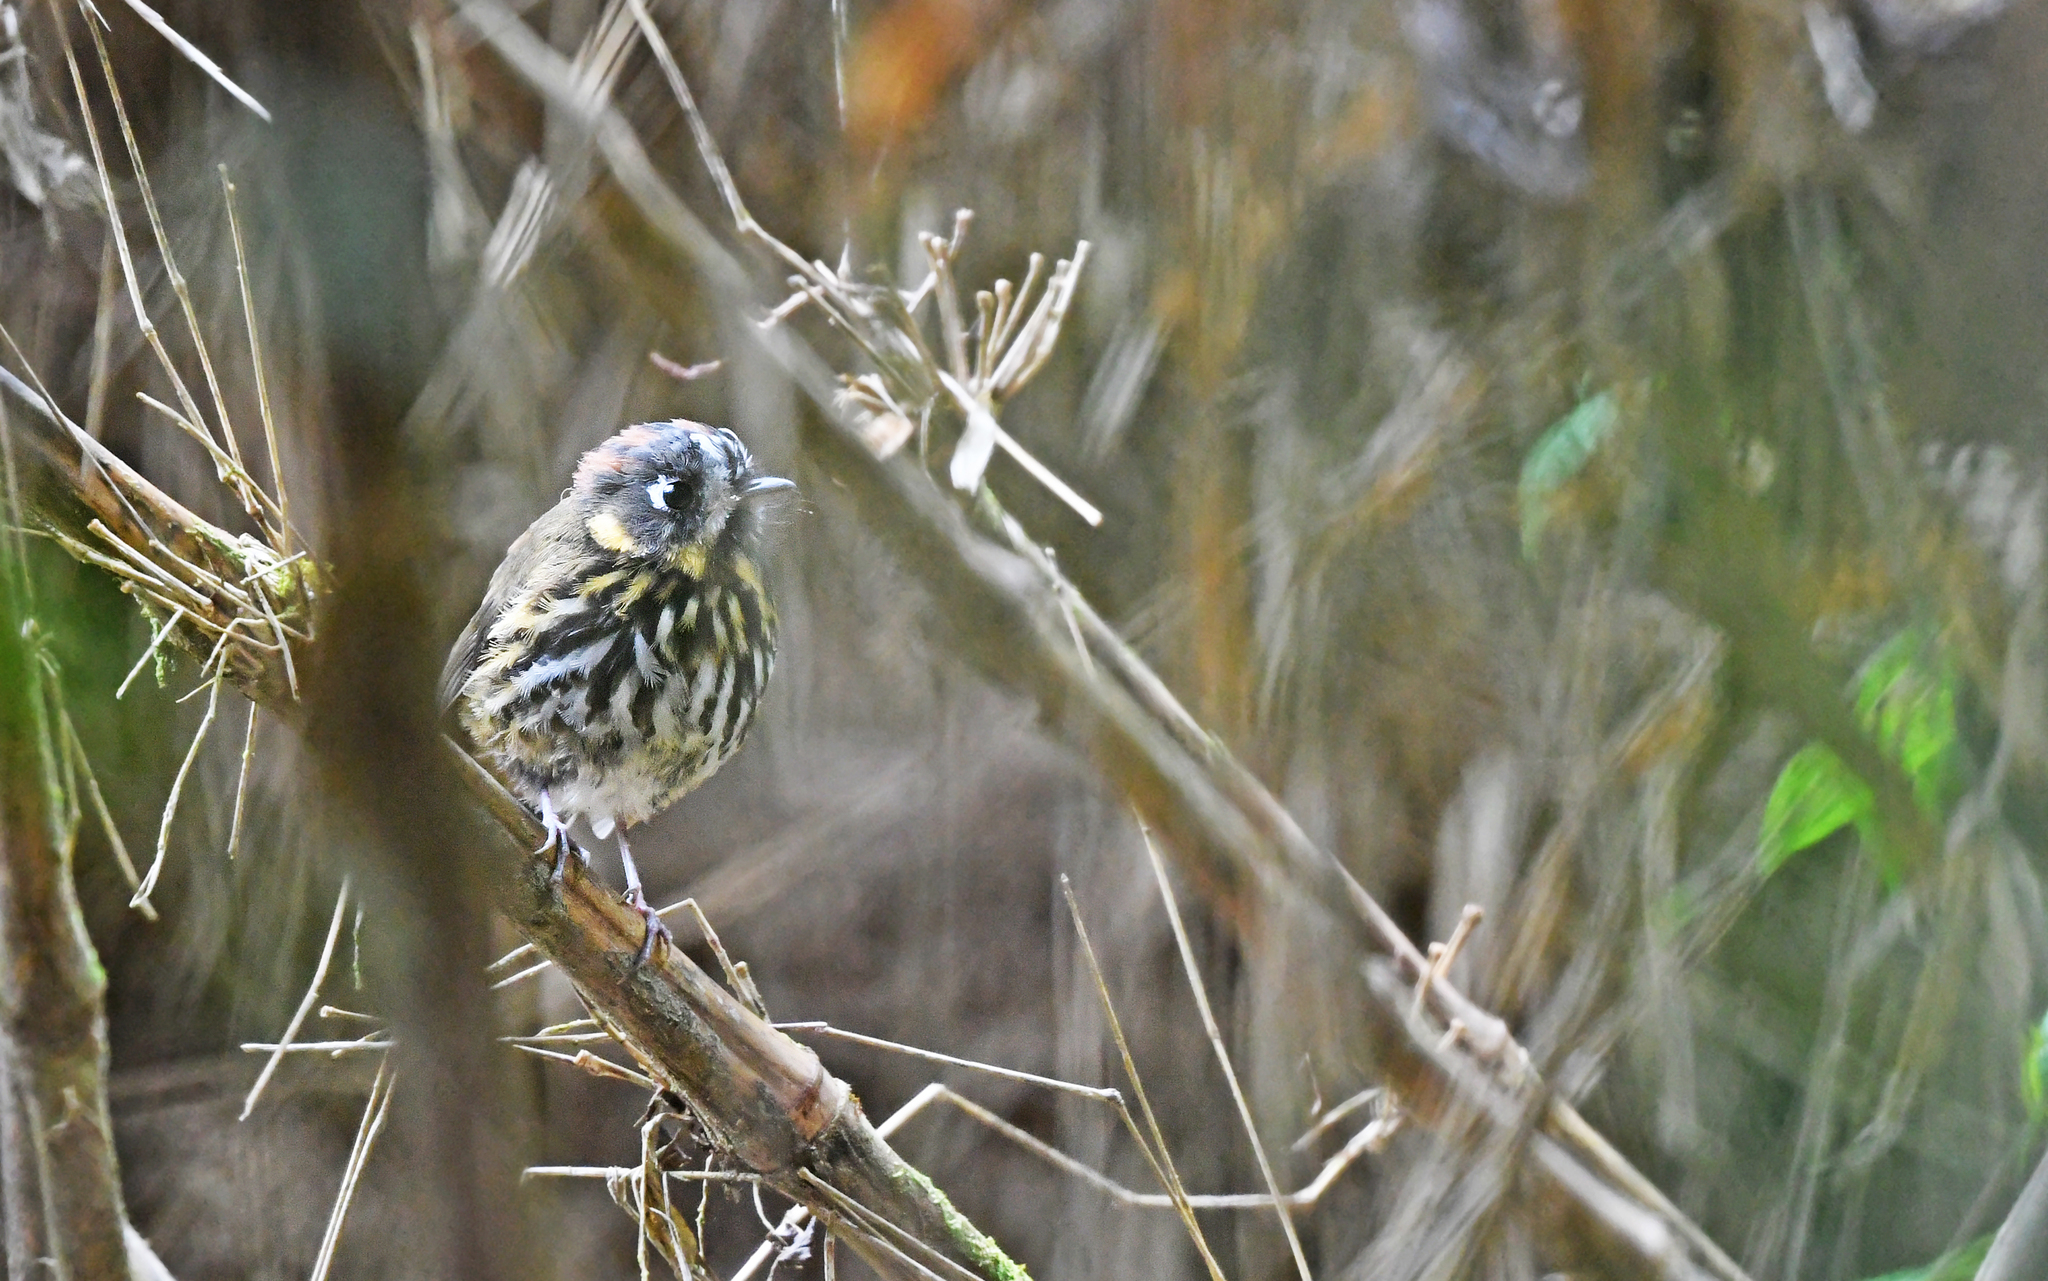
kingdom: Animalia
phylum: Chordata
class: Aves
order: Passeriformes
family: Grallariidae
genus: Grallaricula
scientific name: Grallaricula lineifrons
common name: Crescent-faced antpitta
